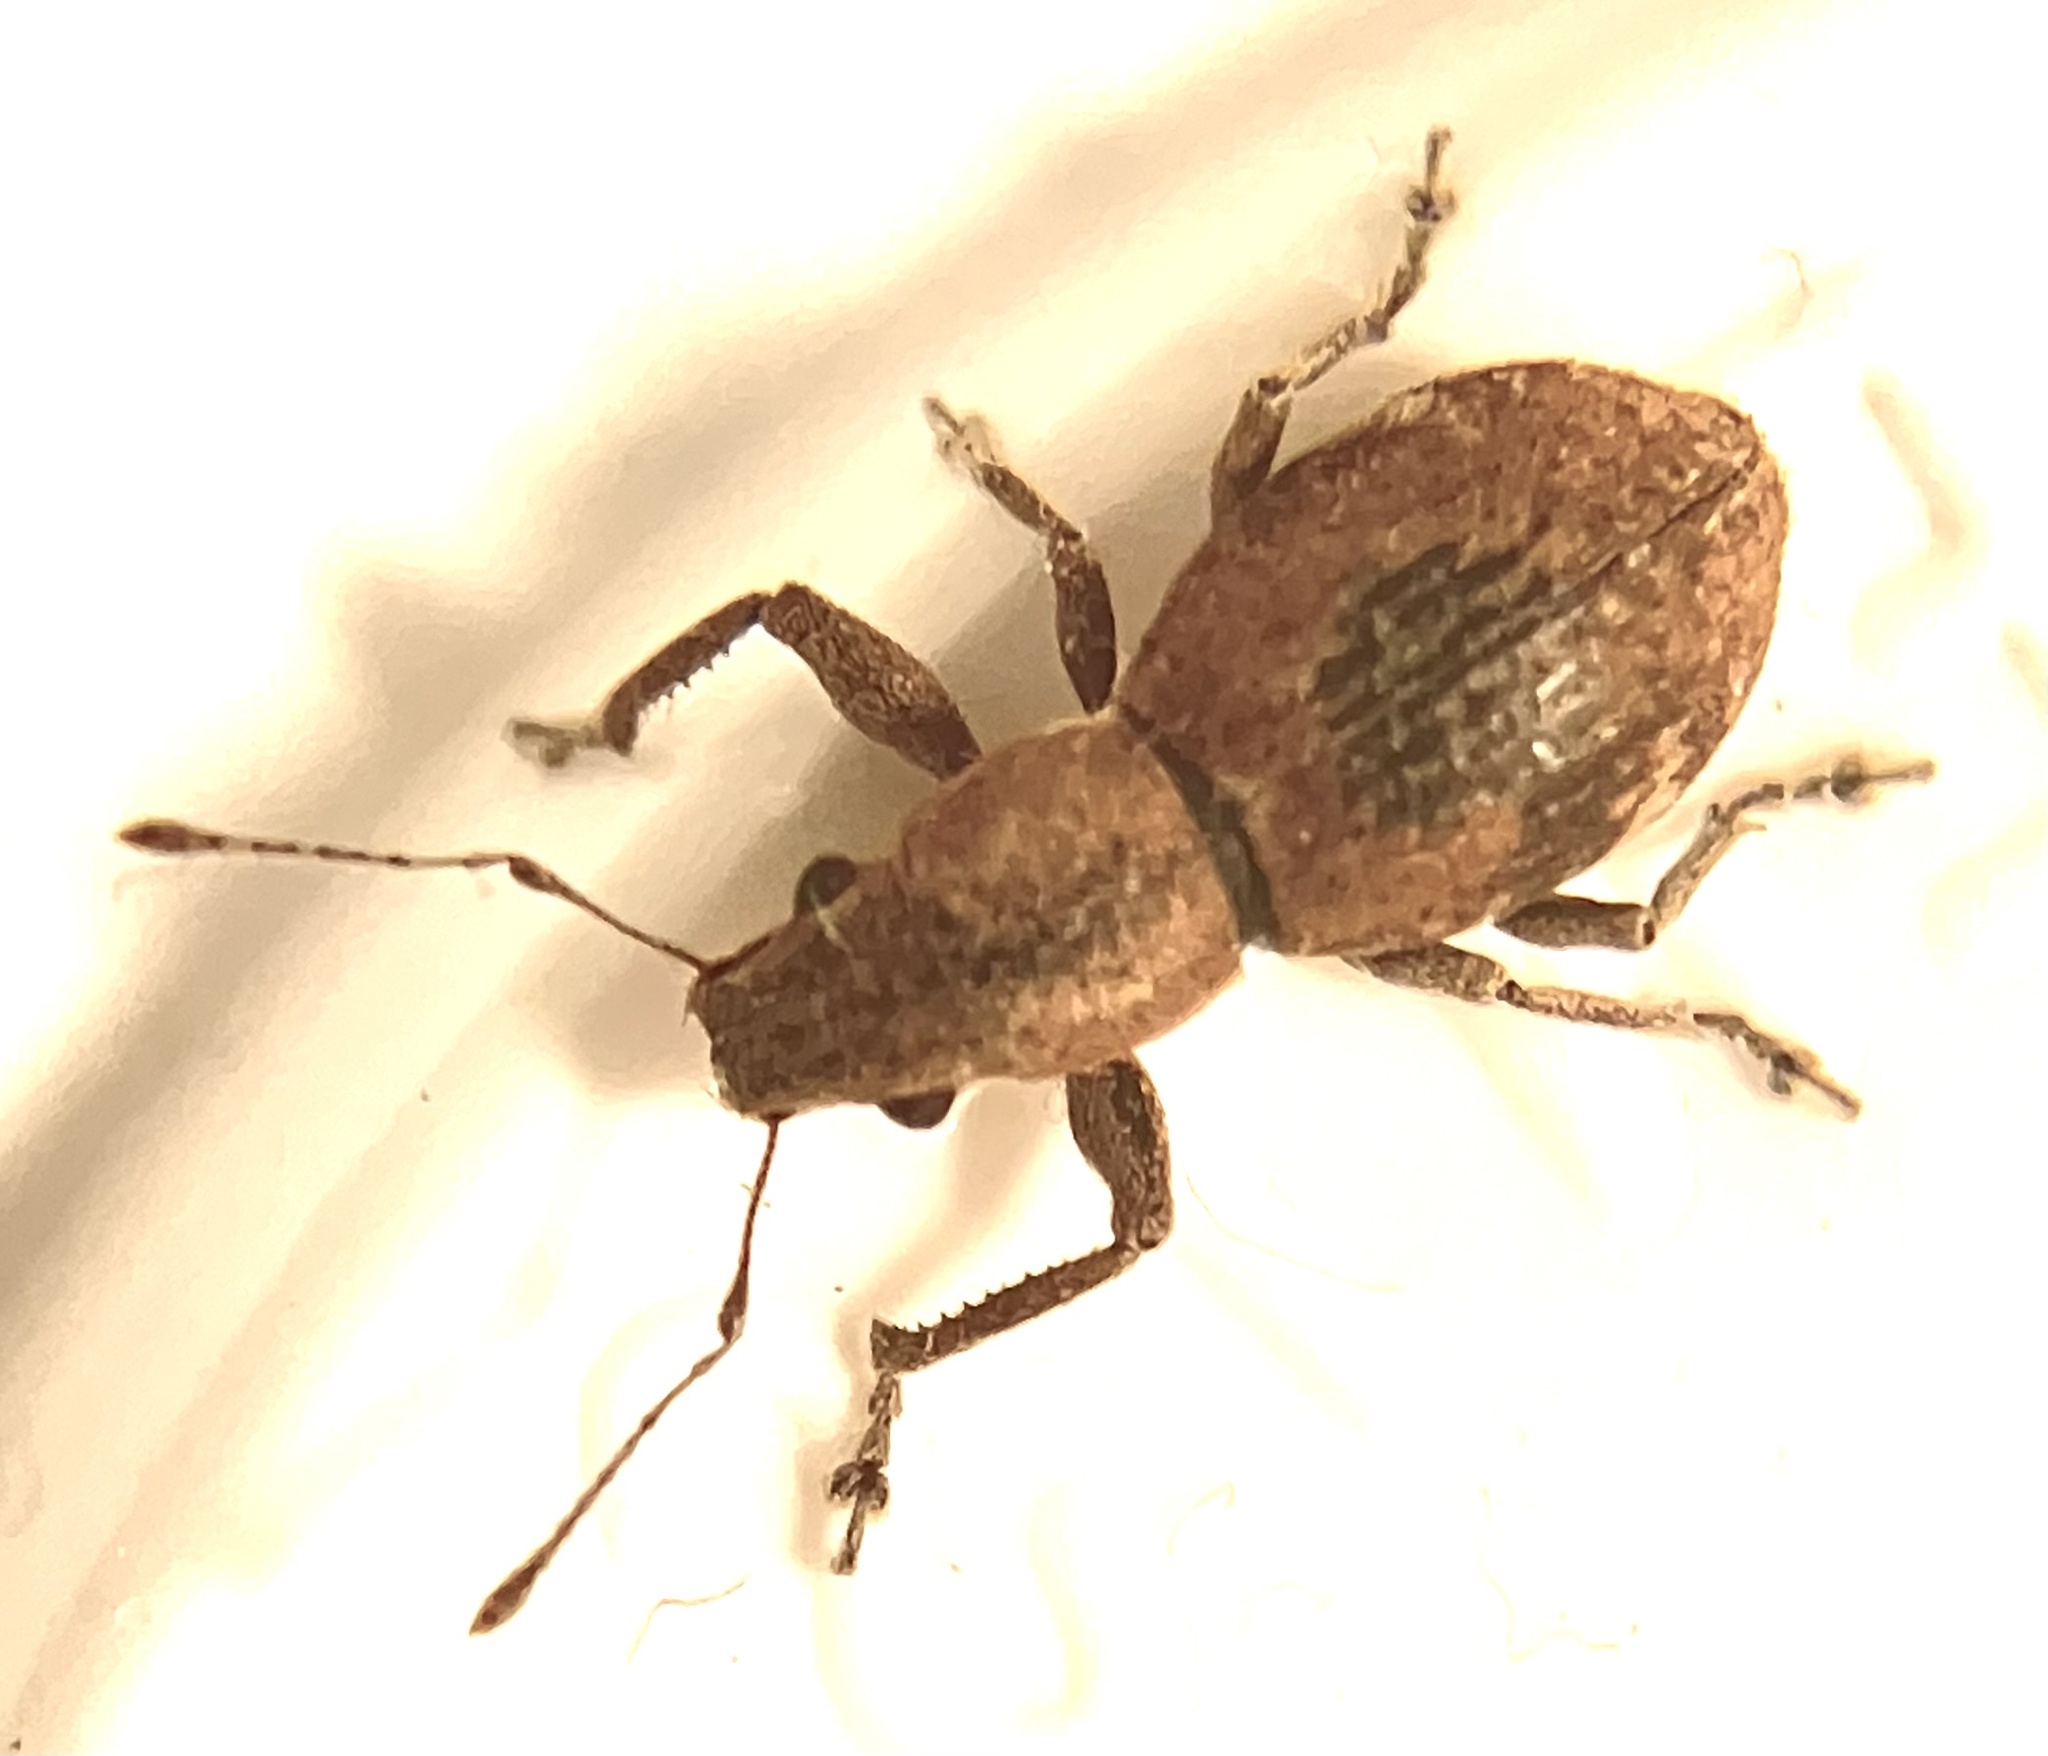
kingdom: Animalia
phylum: Arthropoda
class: Insecta
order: Coleoptera
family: Curculionidae
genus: Naupactus
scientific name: Naupactus cervinus
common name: Fuller rose beetle
